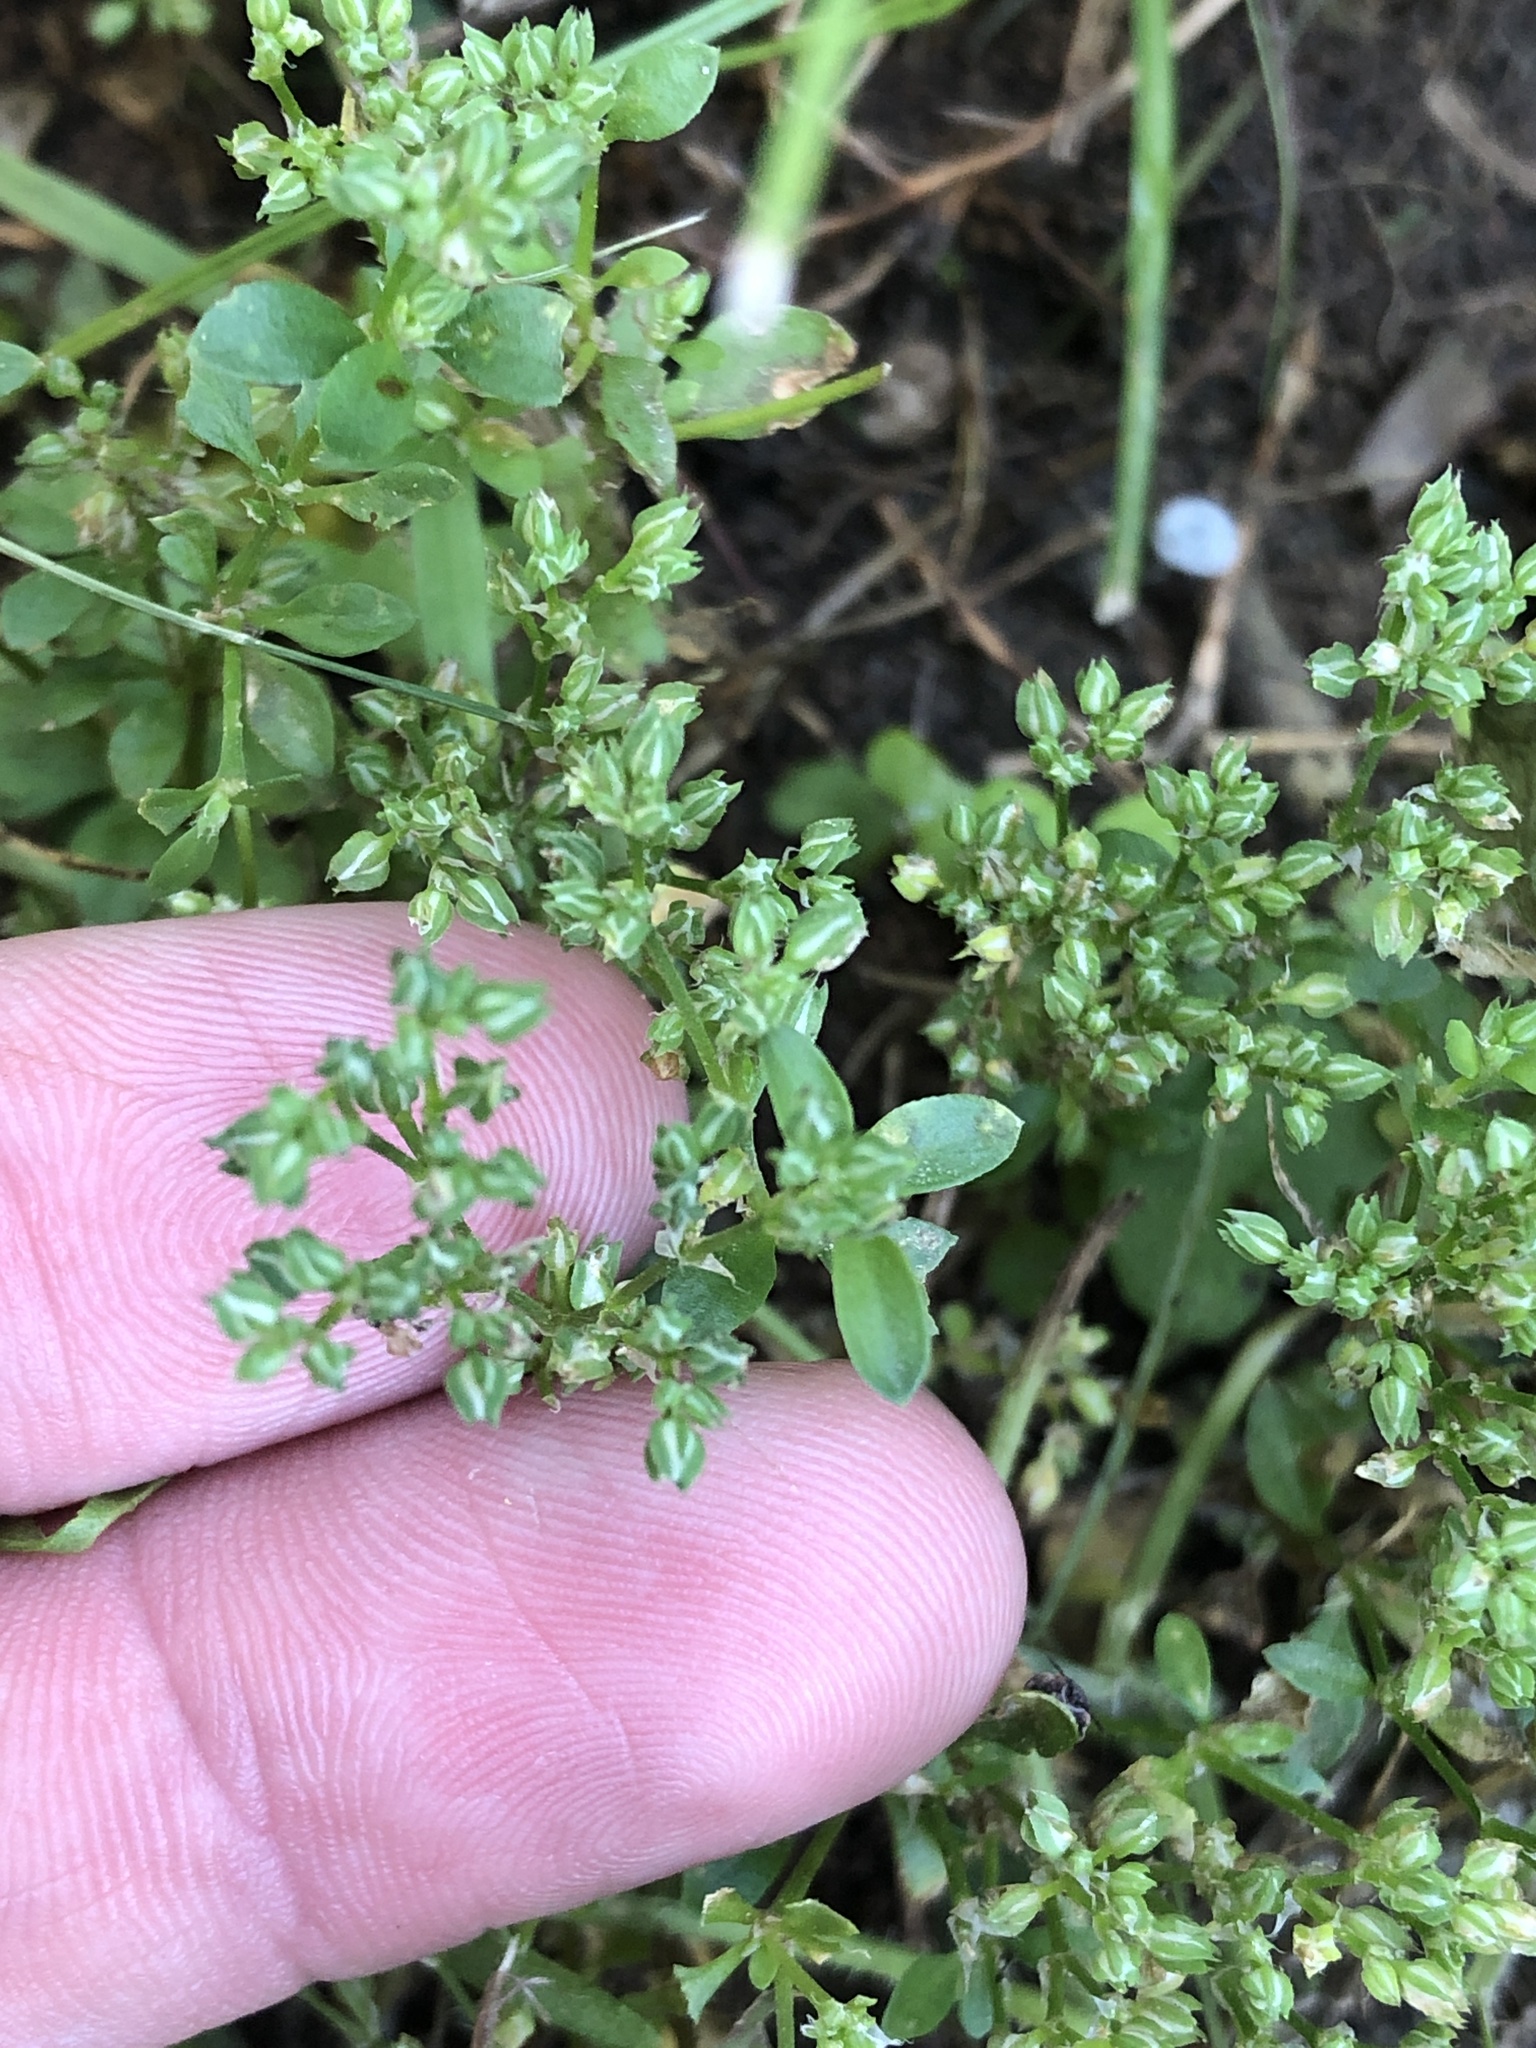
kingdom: Plantae
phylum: Tracheophyta
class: Magnoliopsida
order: Caryophyllales
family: Caryophyllaceae
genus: Polycarpon
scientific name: Polycarpon tetraphyllum
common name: Four-leaved all-seed
